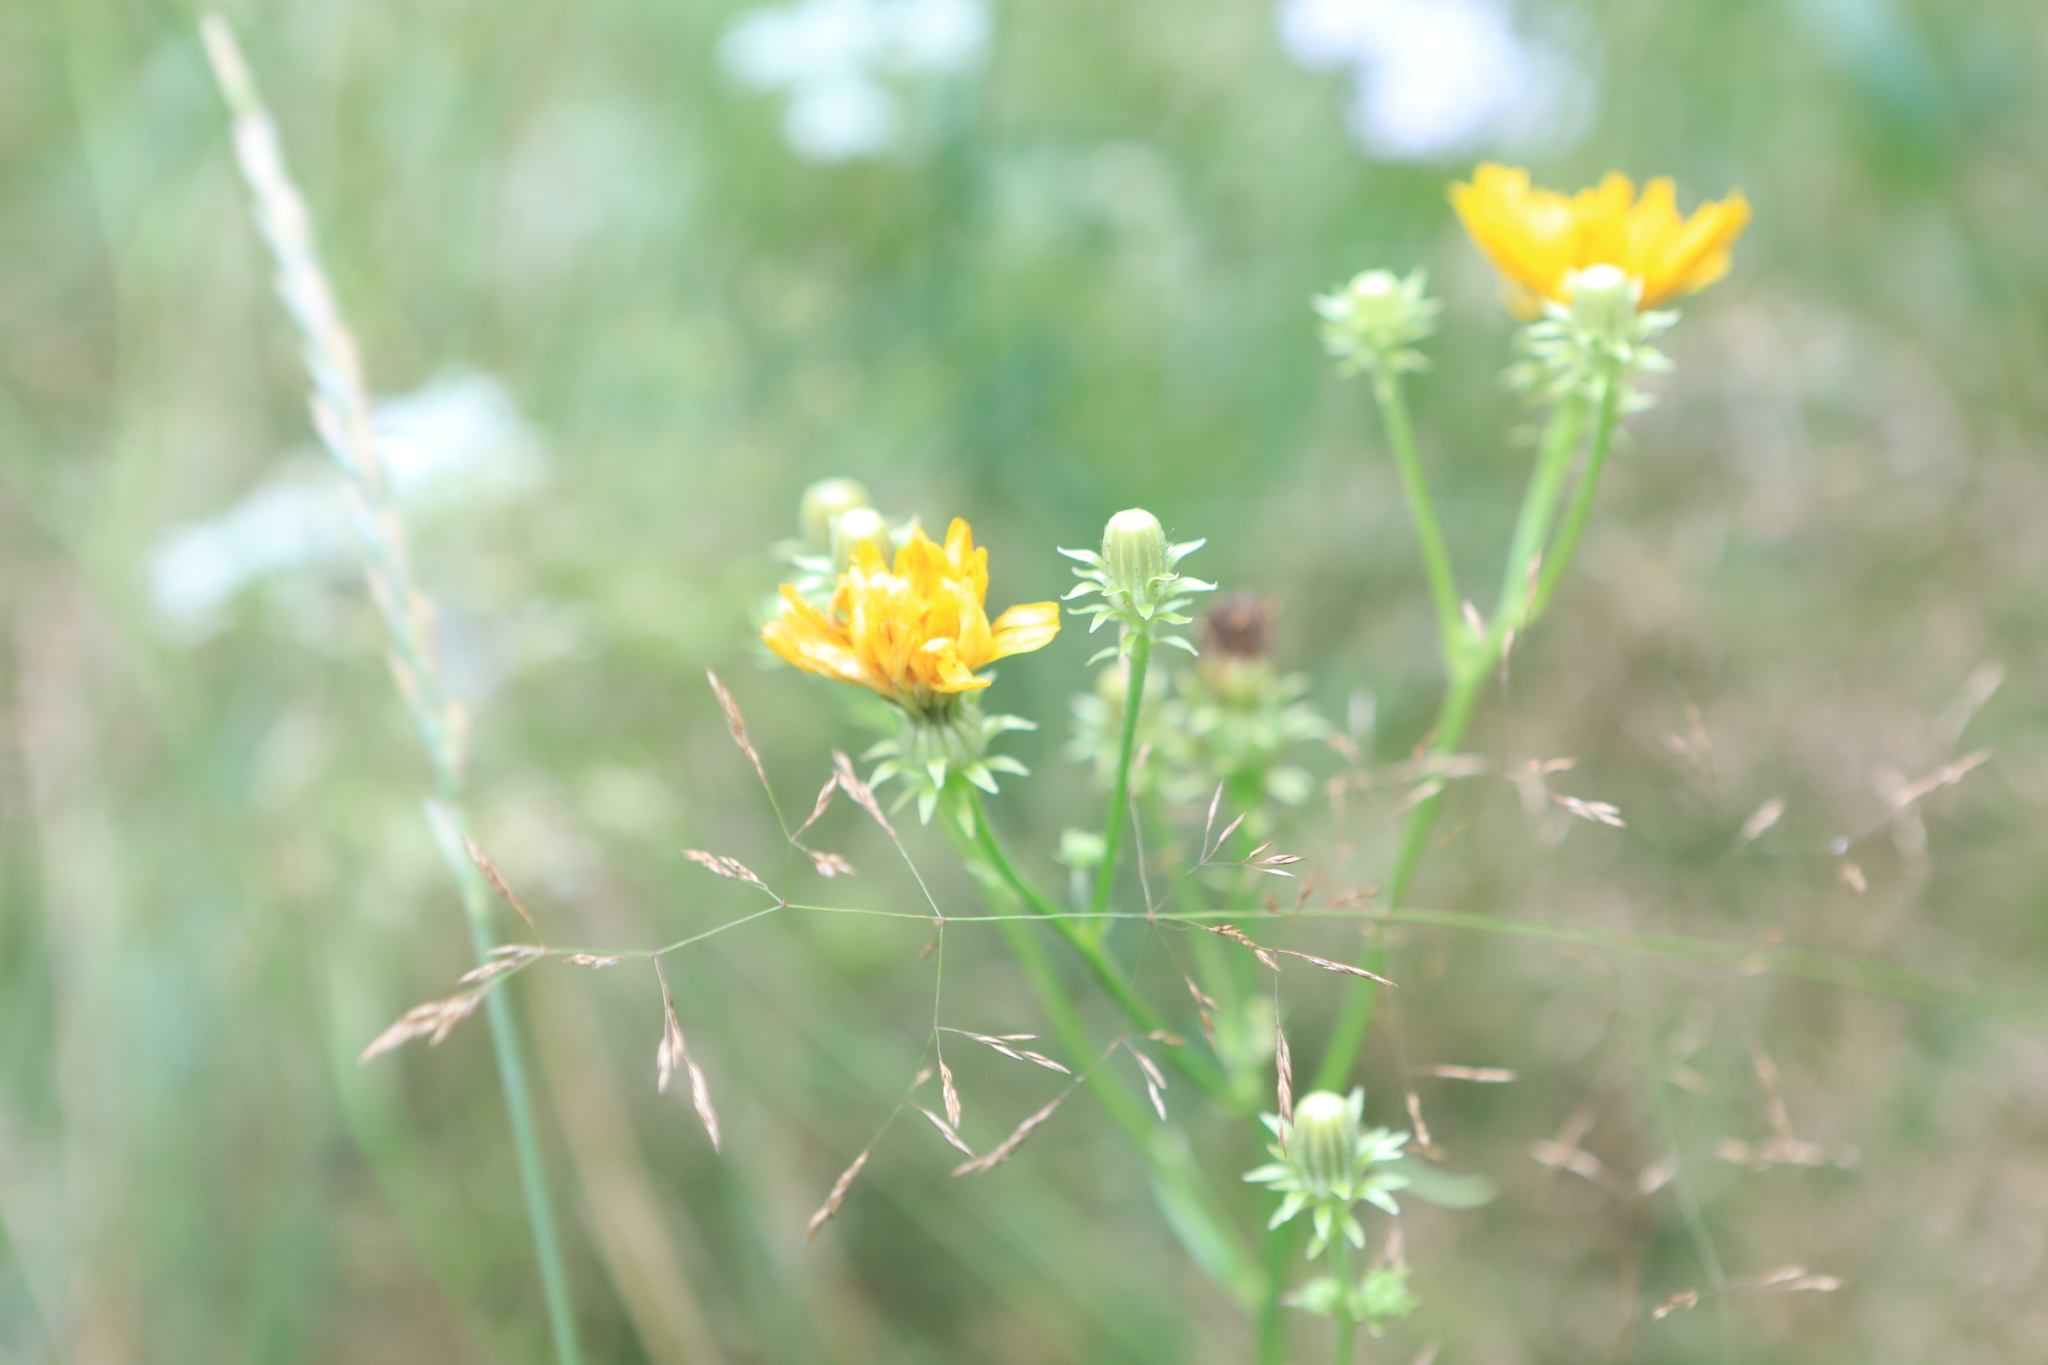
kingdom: Plantae
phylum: Tracheophyta
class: Magnoliopsida
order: Asterales
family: Asteraceae
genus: Picris
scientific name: Picris hieracioides
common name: Hawkweed oxtongue
